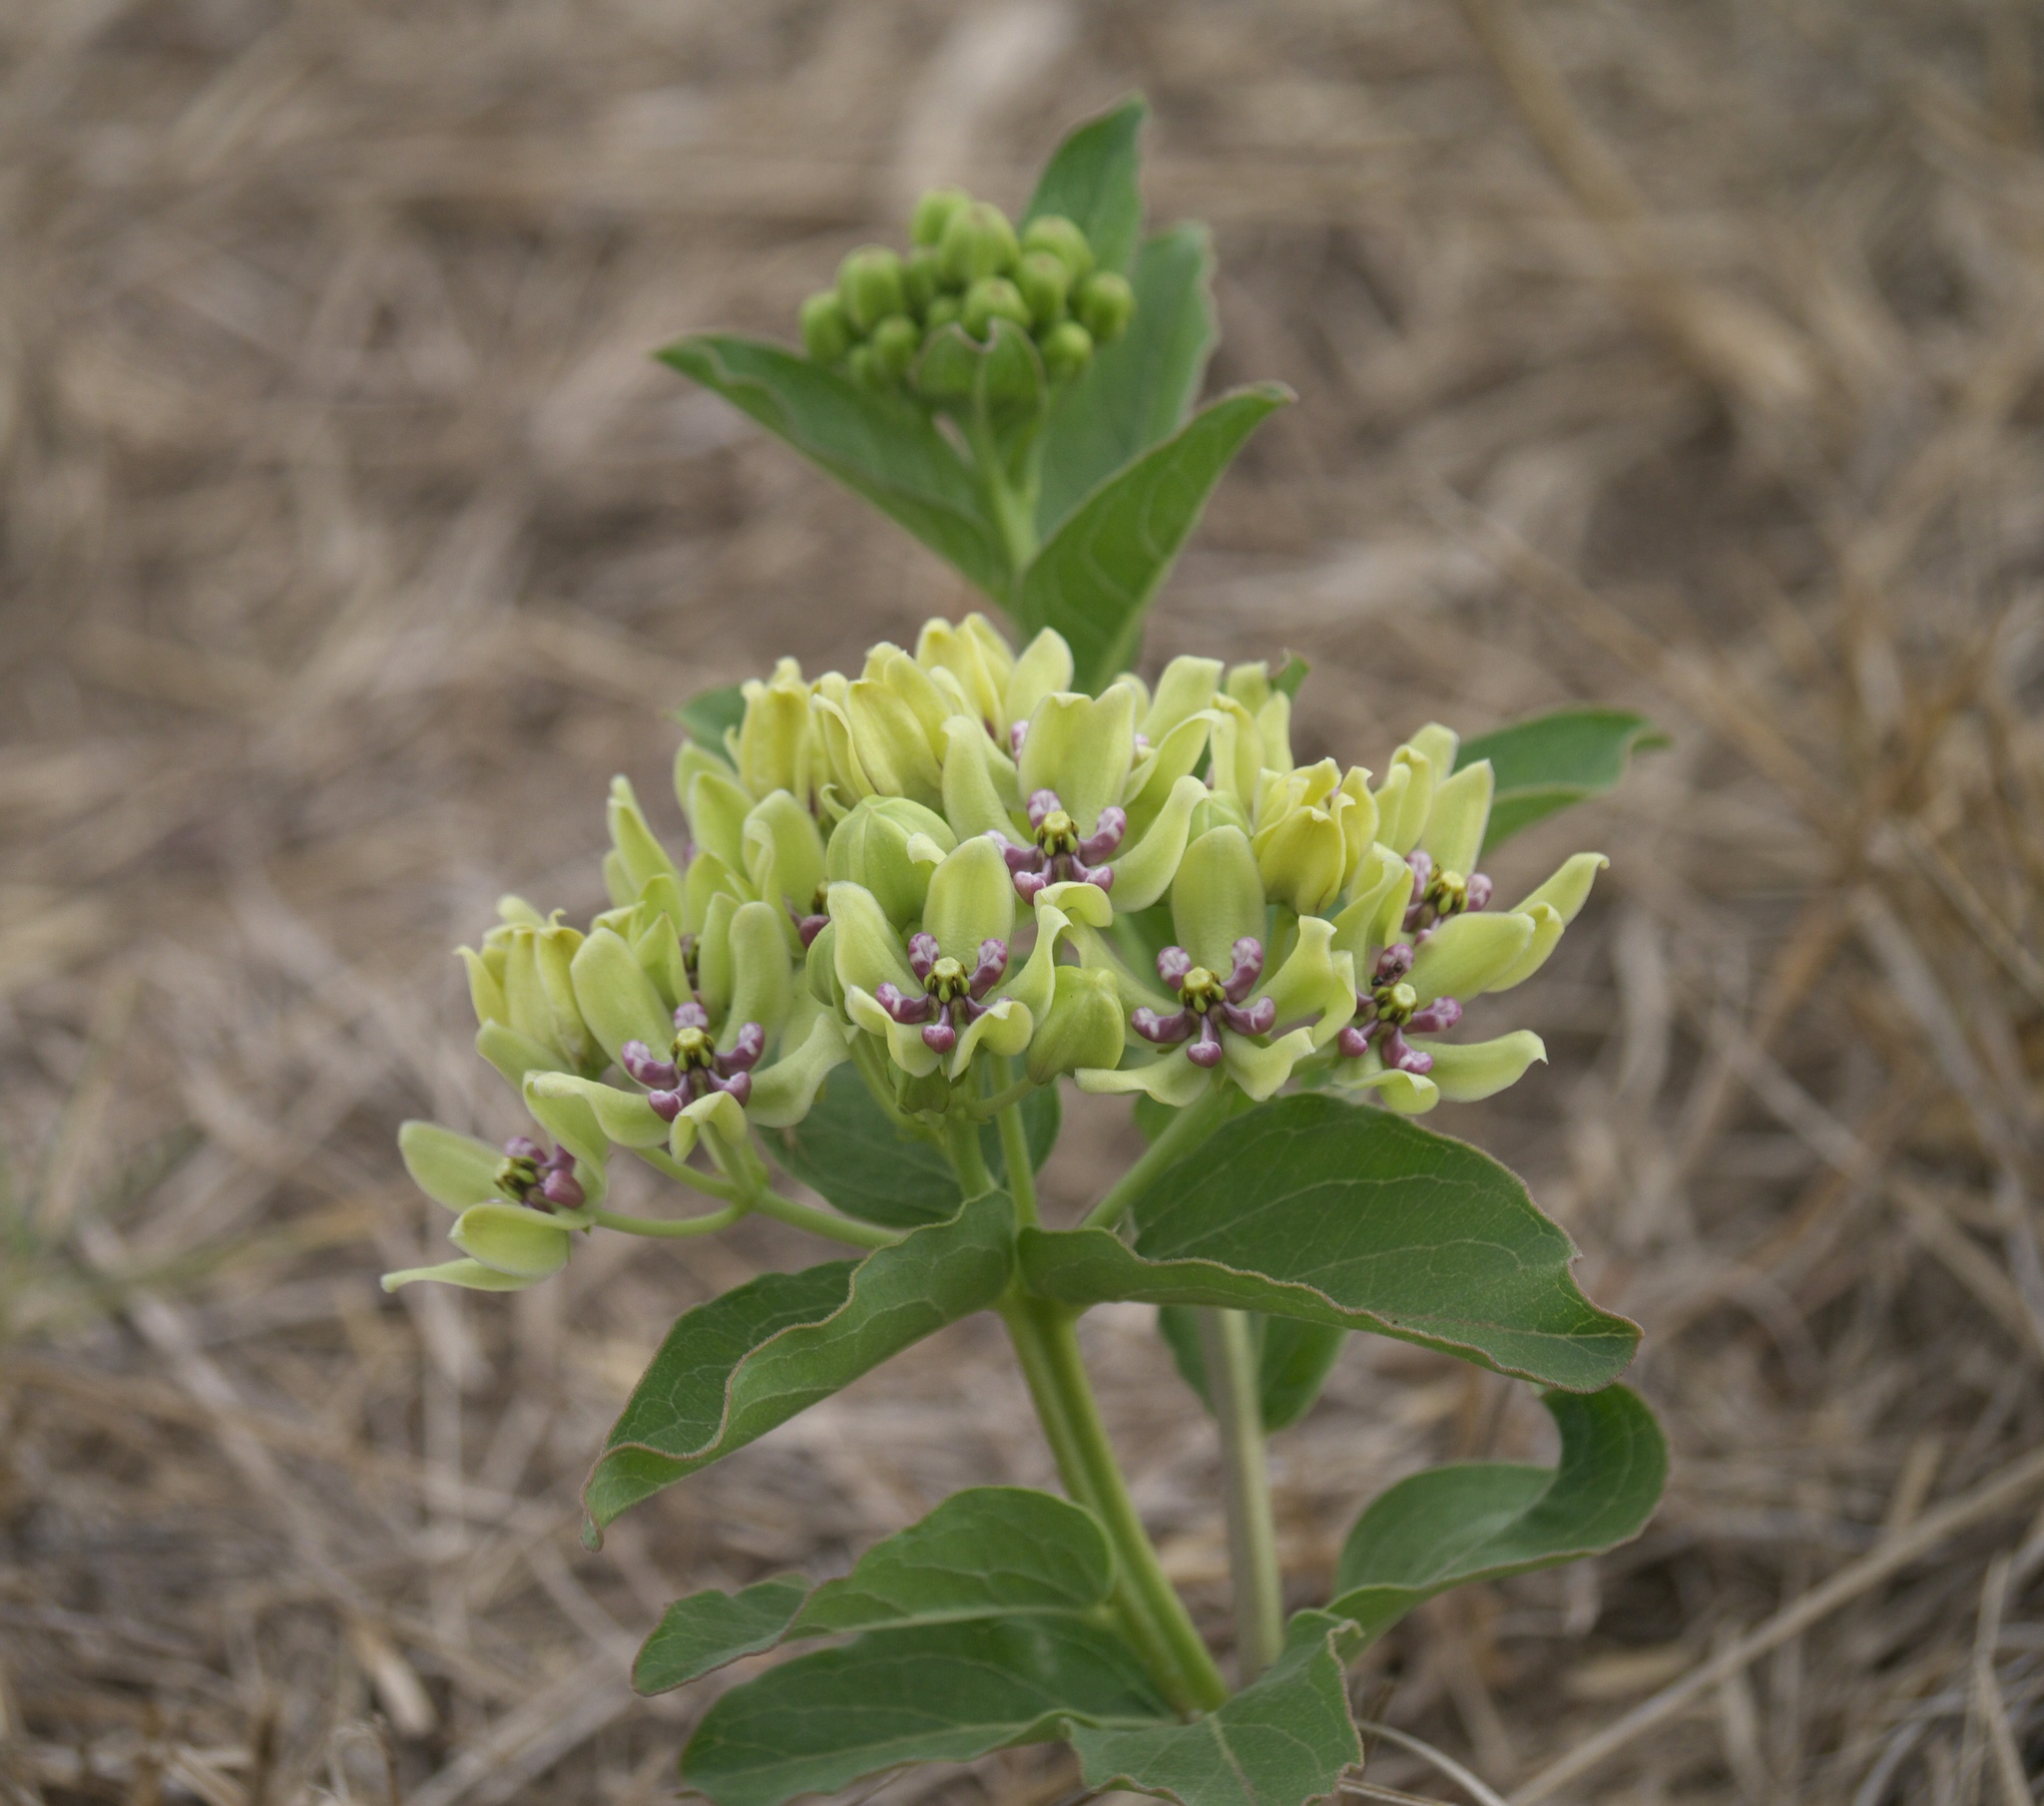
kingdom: Plantae
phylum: Tracheophyta
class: Magnoliopsida
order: Gentianales
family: Apocynaceae
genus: Asclepias
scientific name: Asclepias viridis
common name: Antelope-horns
